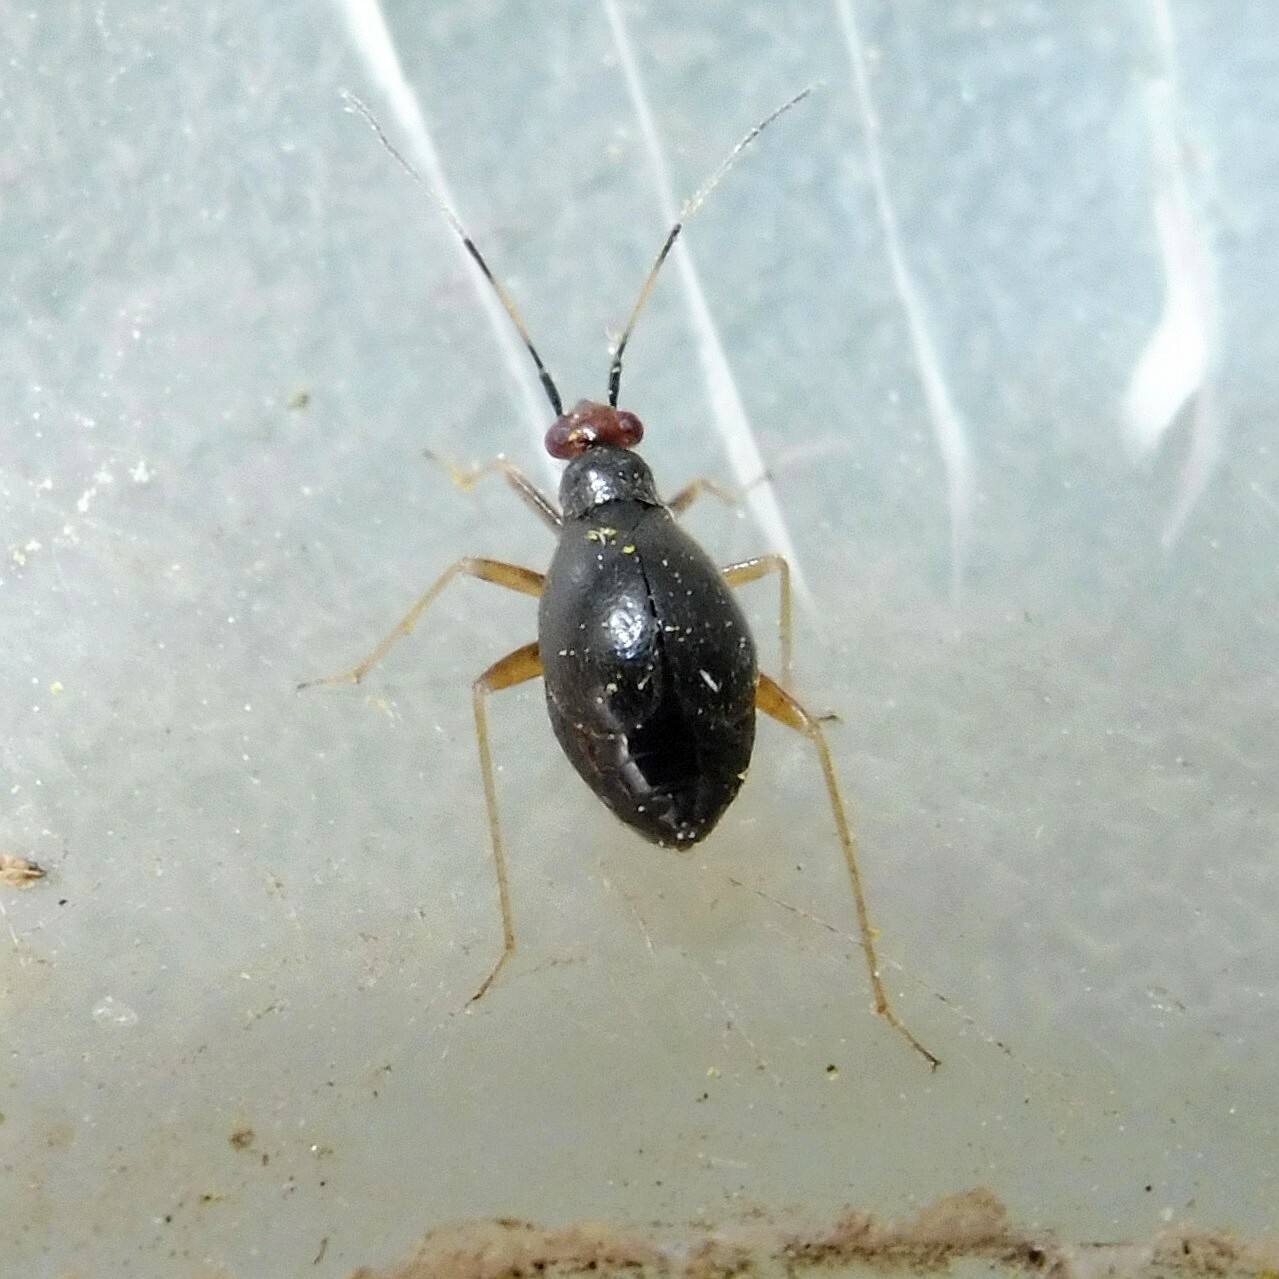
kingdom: Animalia
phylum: Arthropoda
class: Insecta
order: Hemiptera
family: Miridae
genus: Orthonotus
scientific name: Orthonotus rufifrons
